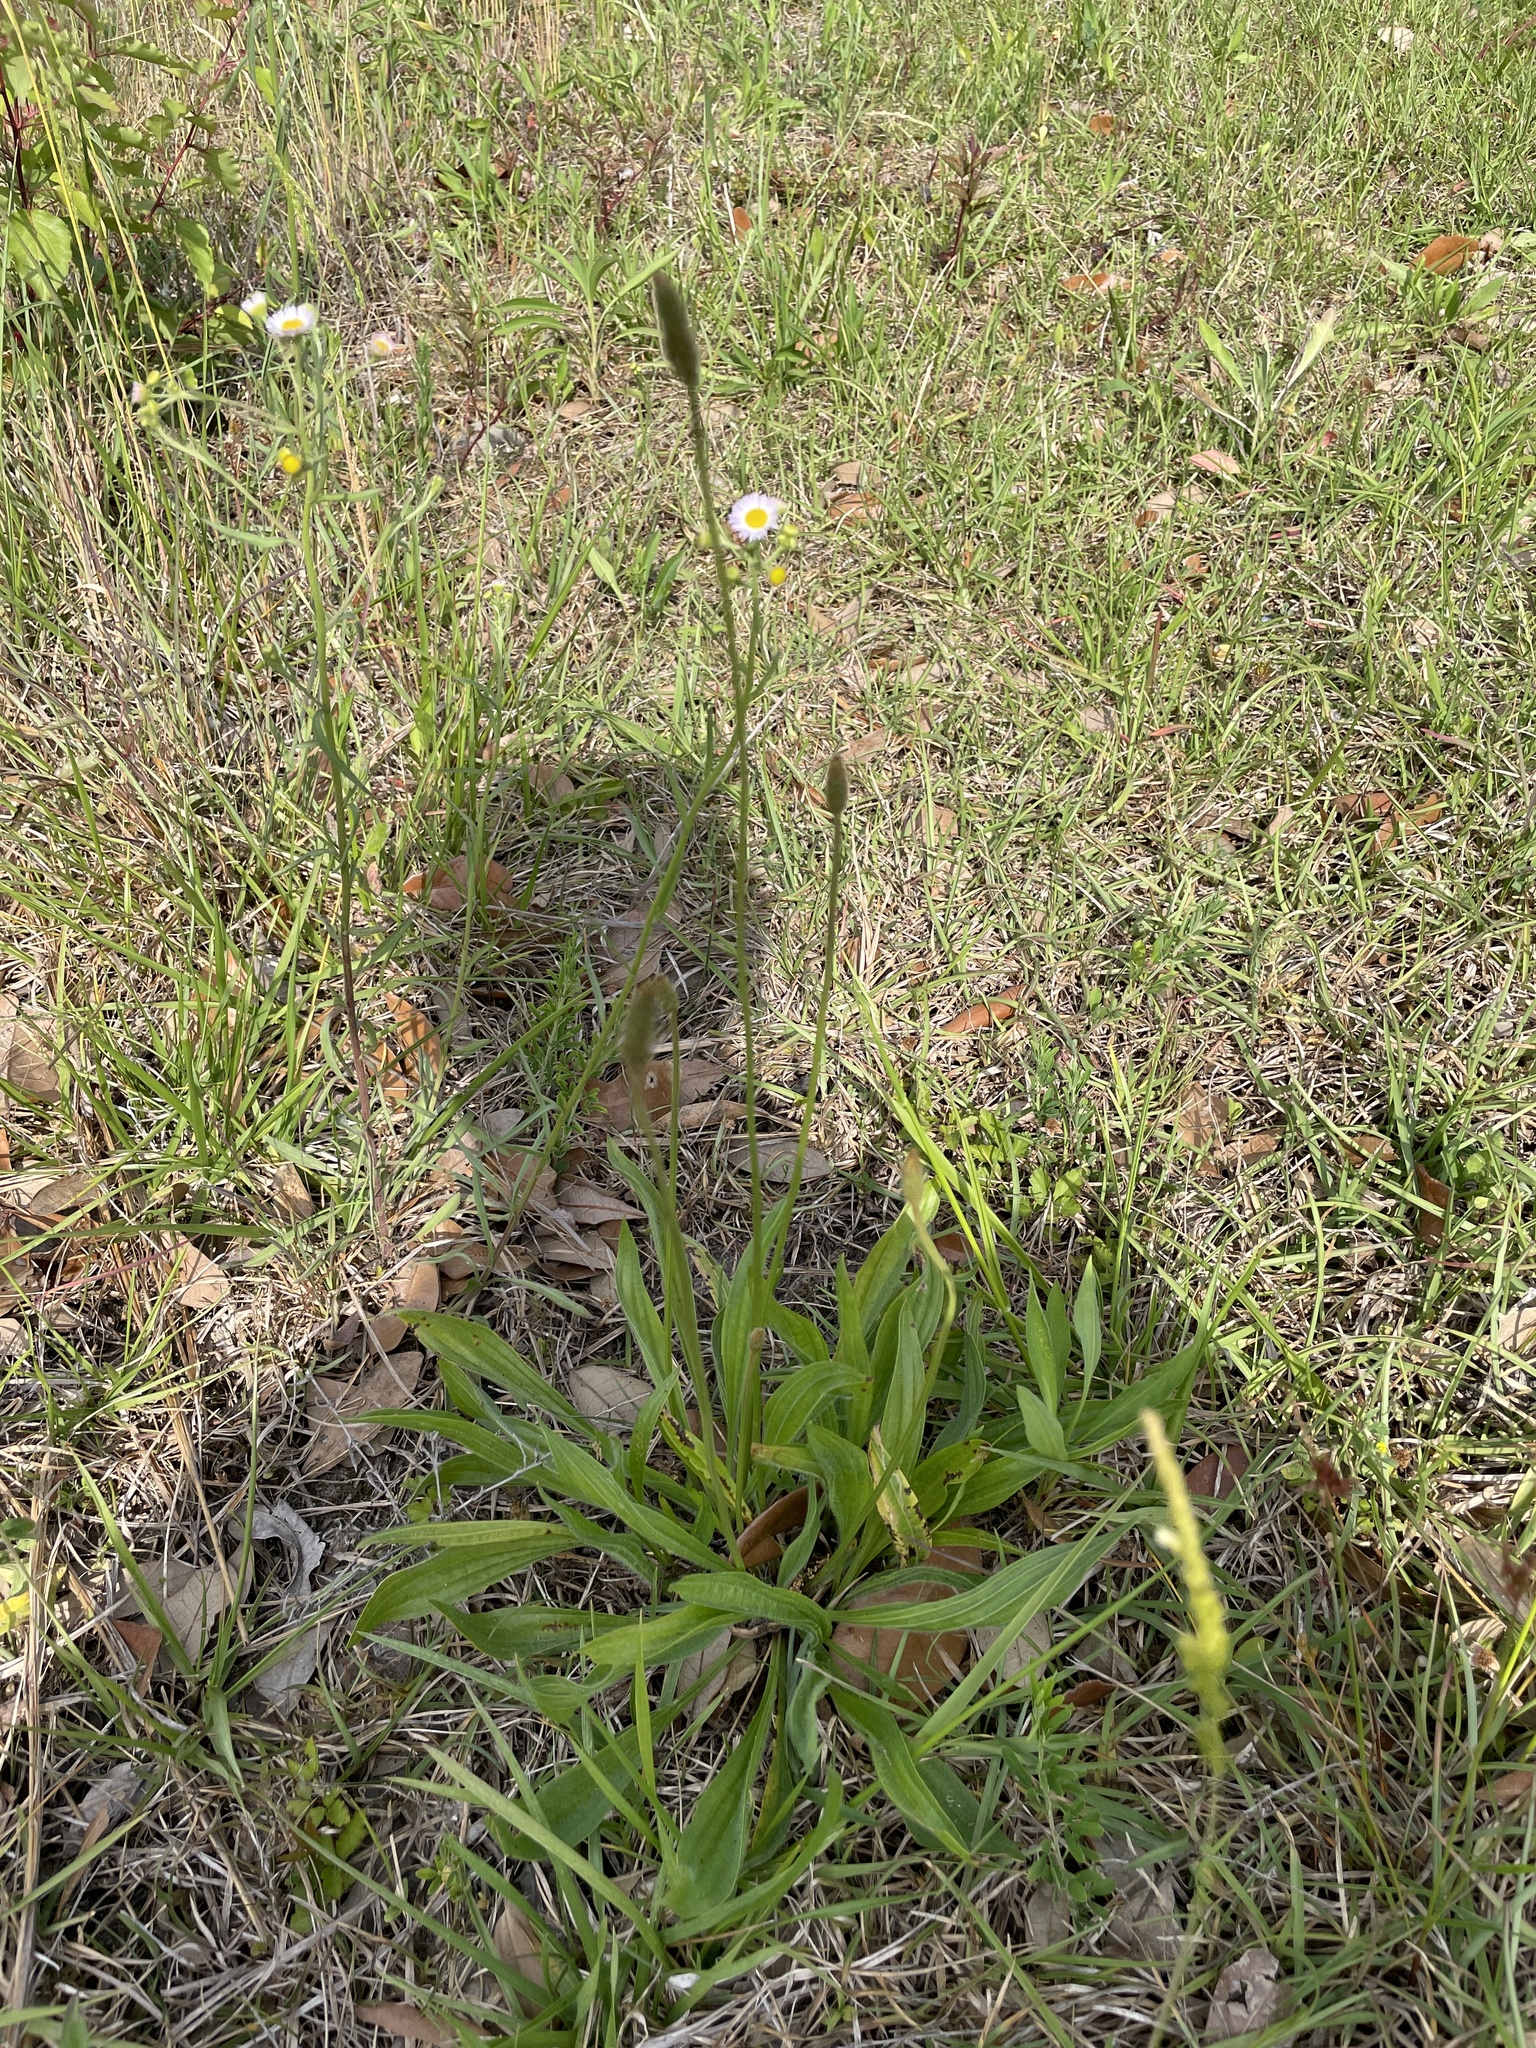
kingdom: Plantae
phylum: Tracheophyta
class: Magnoliopsida
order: Lamiales
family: Plantaginaceae
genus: Plantago
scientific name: Plantago lanceolata
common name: Ribwort plantain
